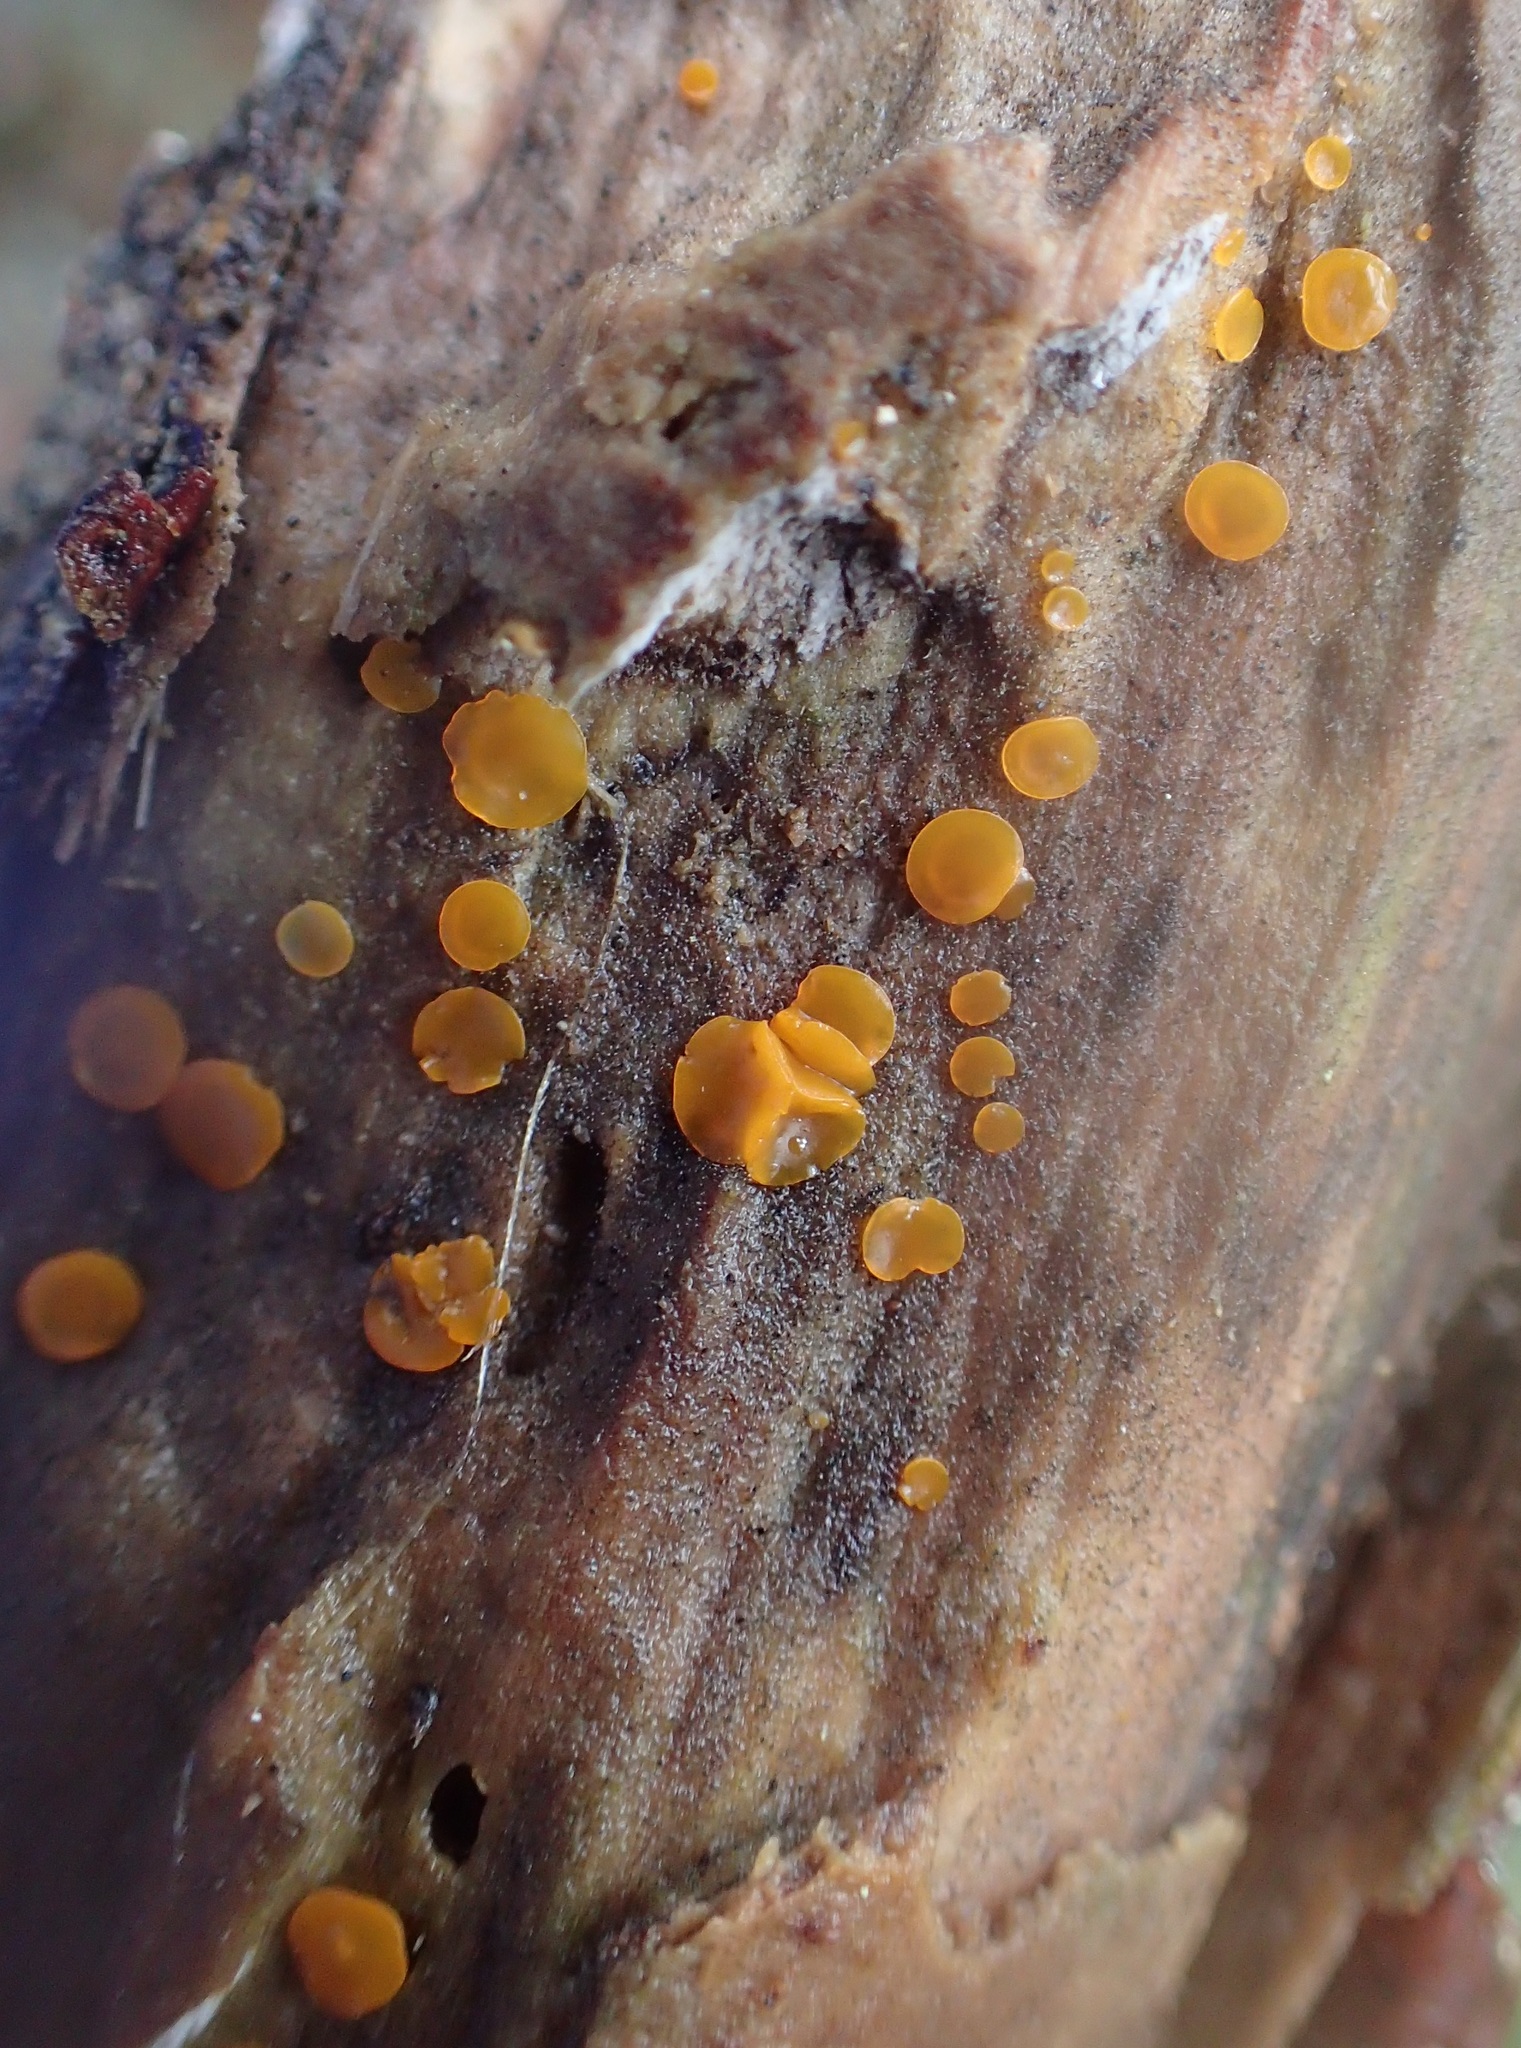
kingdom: Fungi
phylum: Ascomycota
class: Orbiliomycetes
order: Orbiliales
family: Orbiliaceae
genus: Orbilia
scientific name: Orbilia
